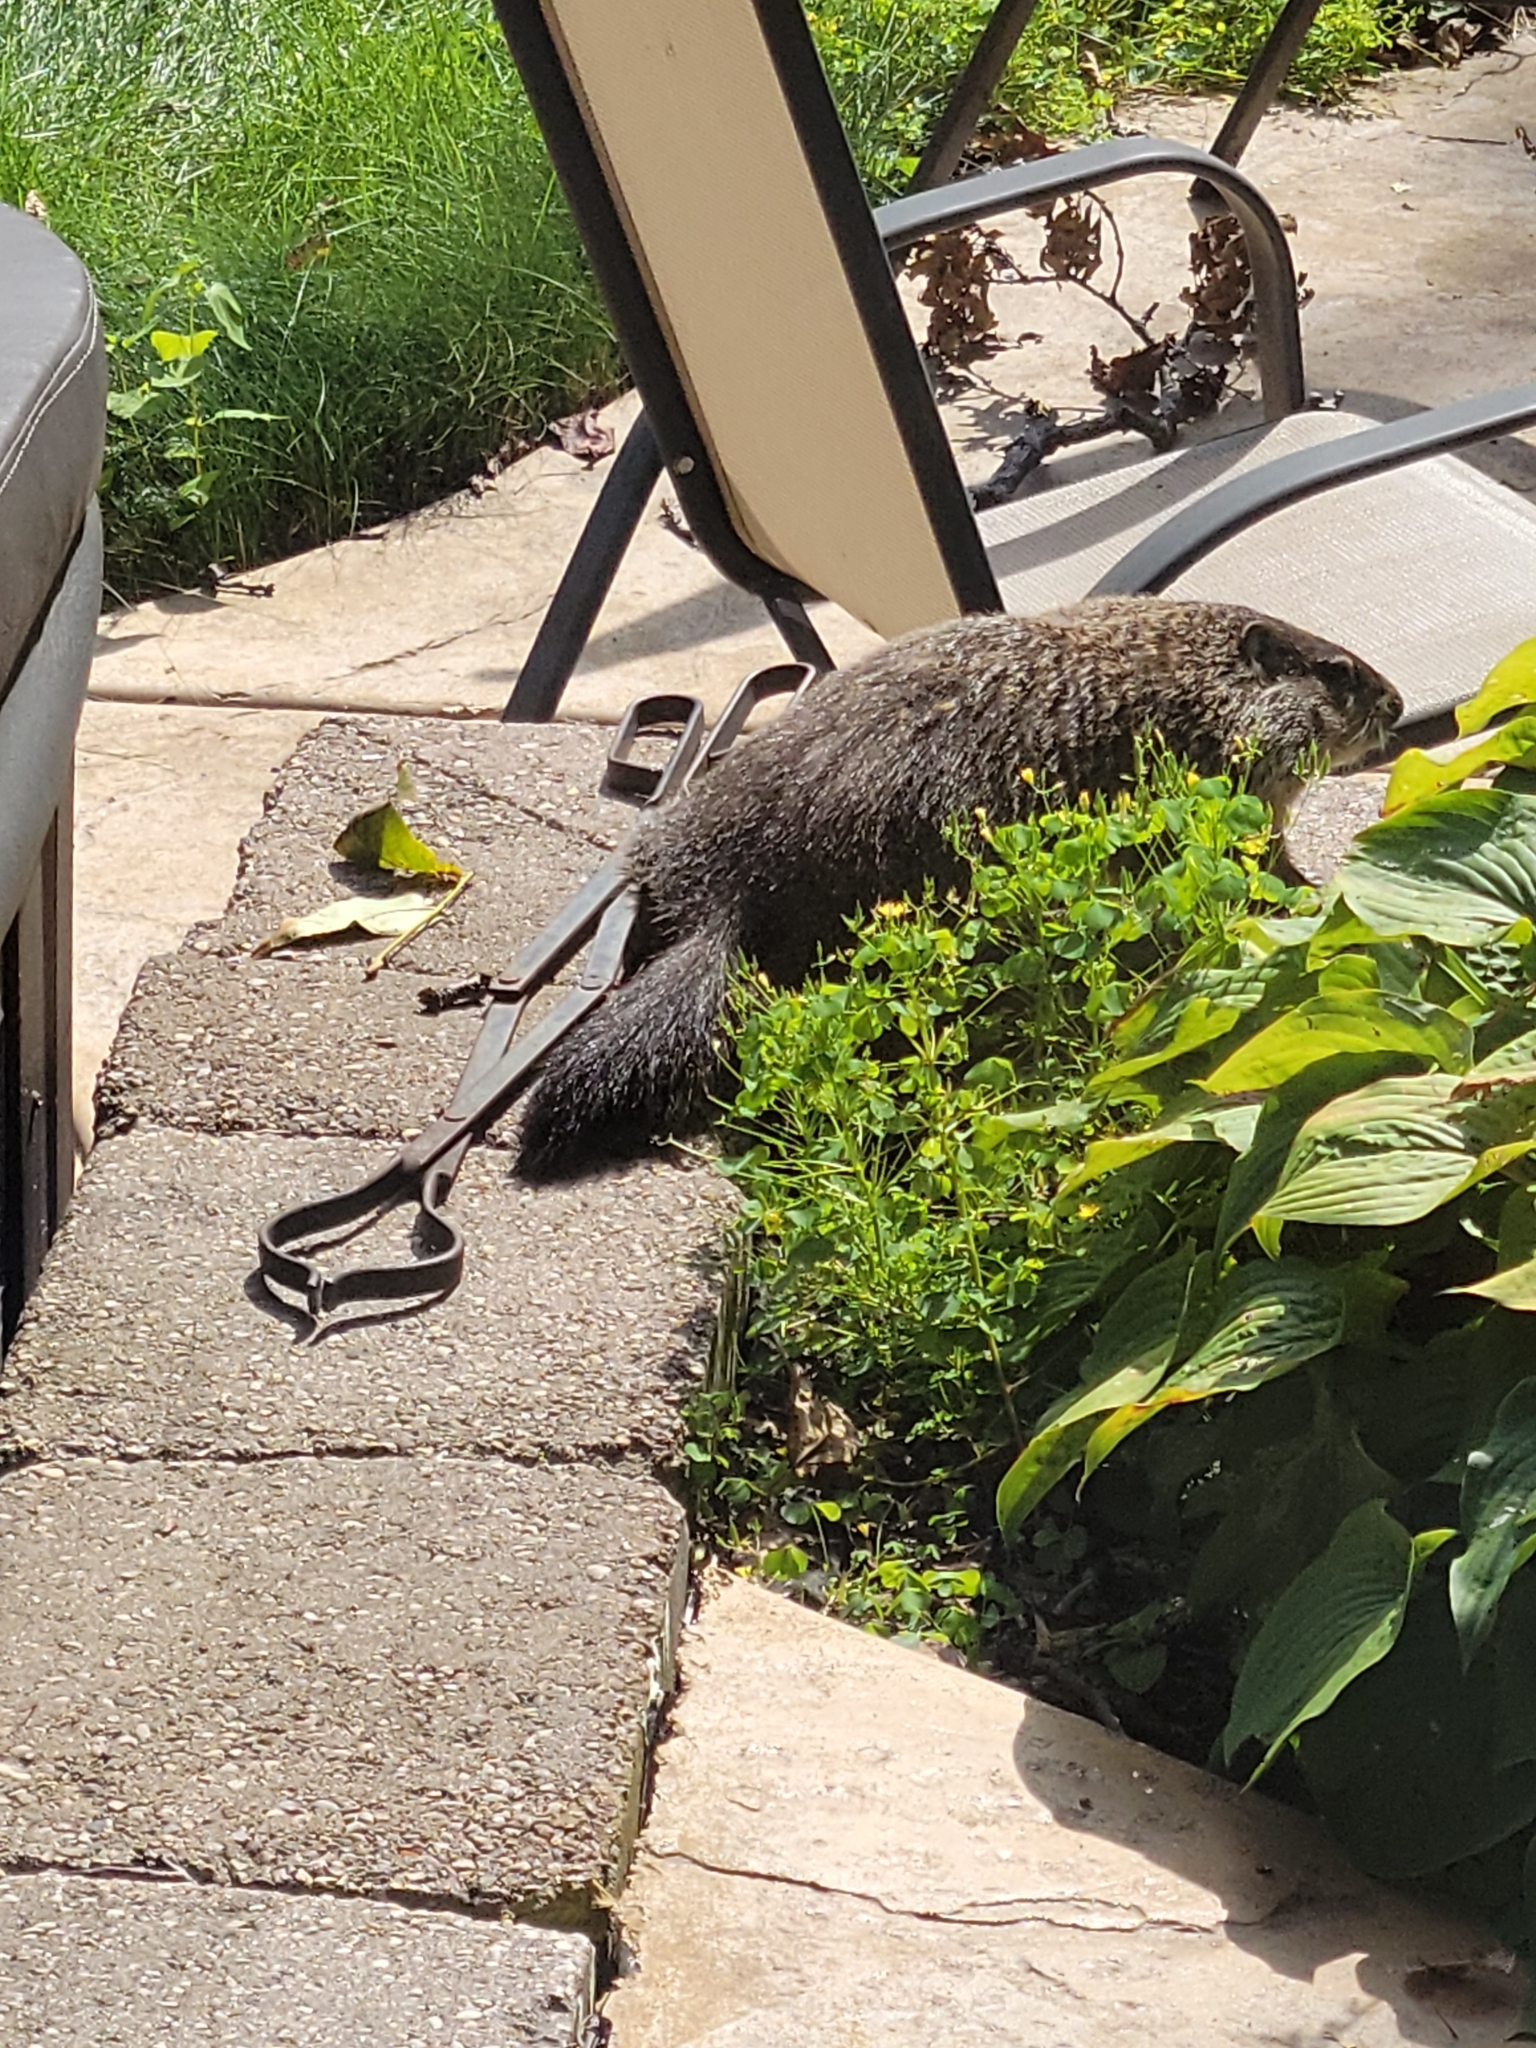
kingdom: Animalia
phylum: Chordata
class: Mammalia
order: Rodentia
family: Sciuridae
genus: Marmota
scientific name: Marmota monax
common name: Groundhog
